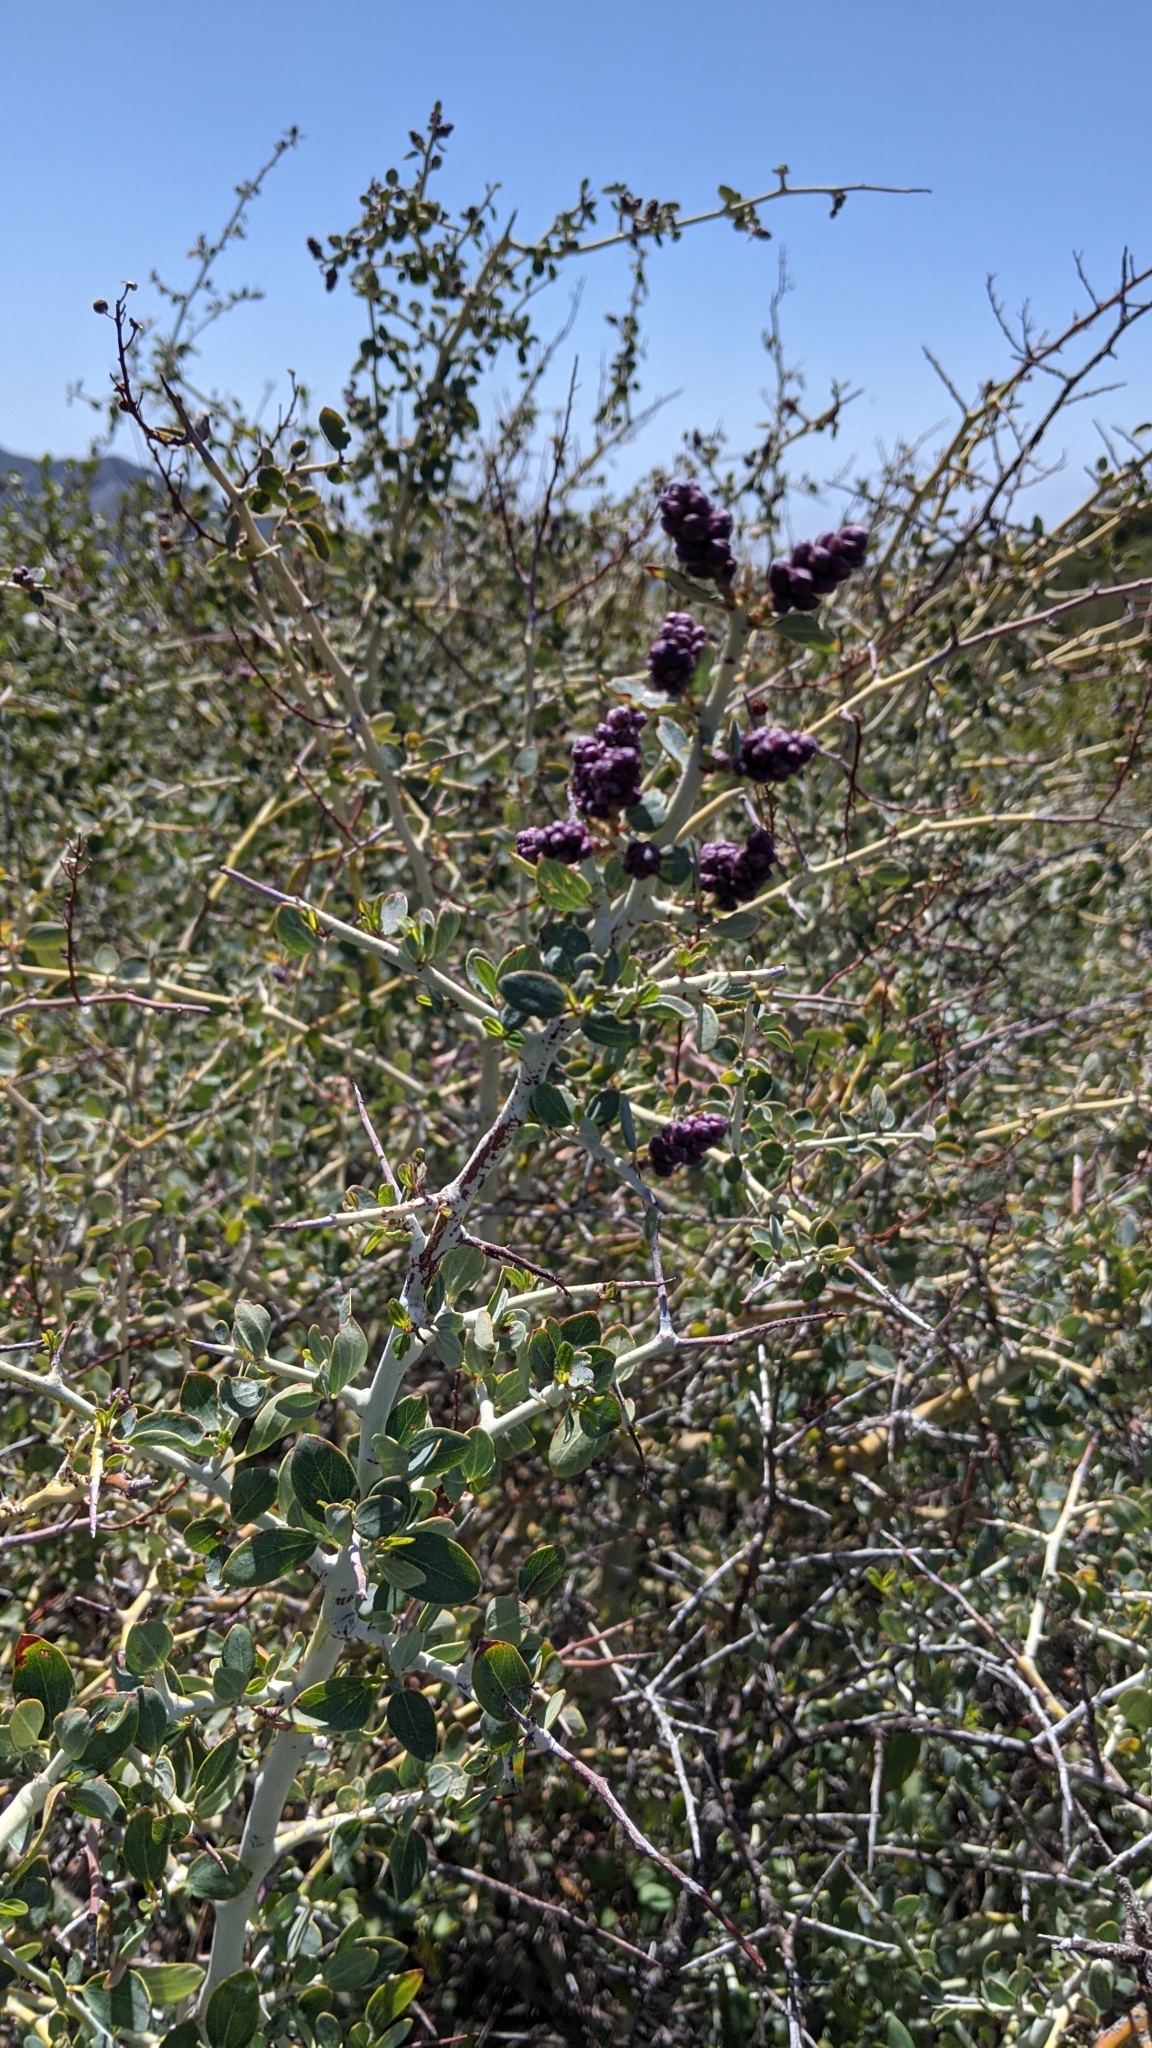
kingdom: Plantae
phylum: Tracheophyta
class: Magnoliopsida
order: Rosales
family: Rhamnaceae
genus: Ceanothus
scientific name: Ceanothus leucodermis
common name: Chaparral whitethorn
